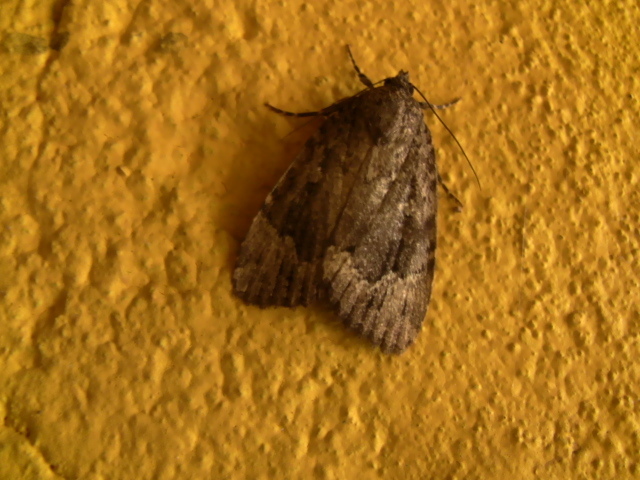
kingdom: Animalia
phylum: Arthropoda
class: Insecta
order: Lepidoptera
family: Noctuidae
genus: Amphipyra
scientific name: Amphipyra pyramidoides
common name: American copper underwing
